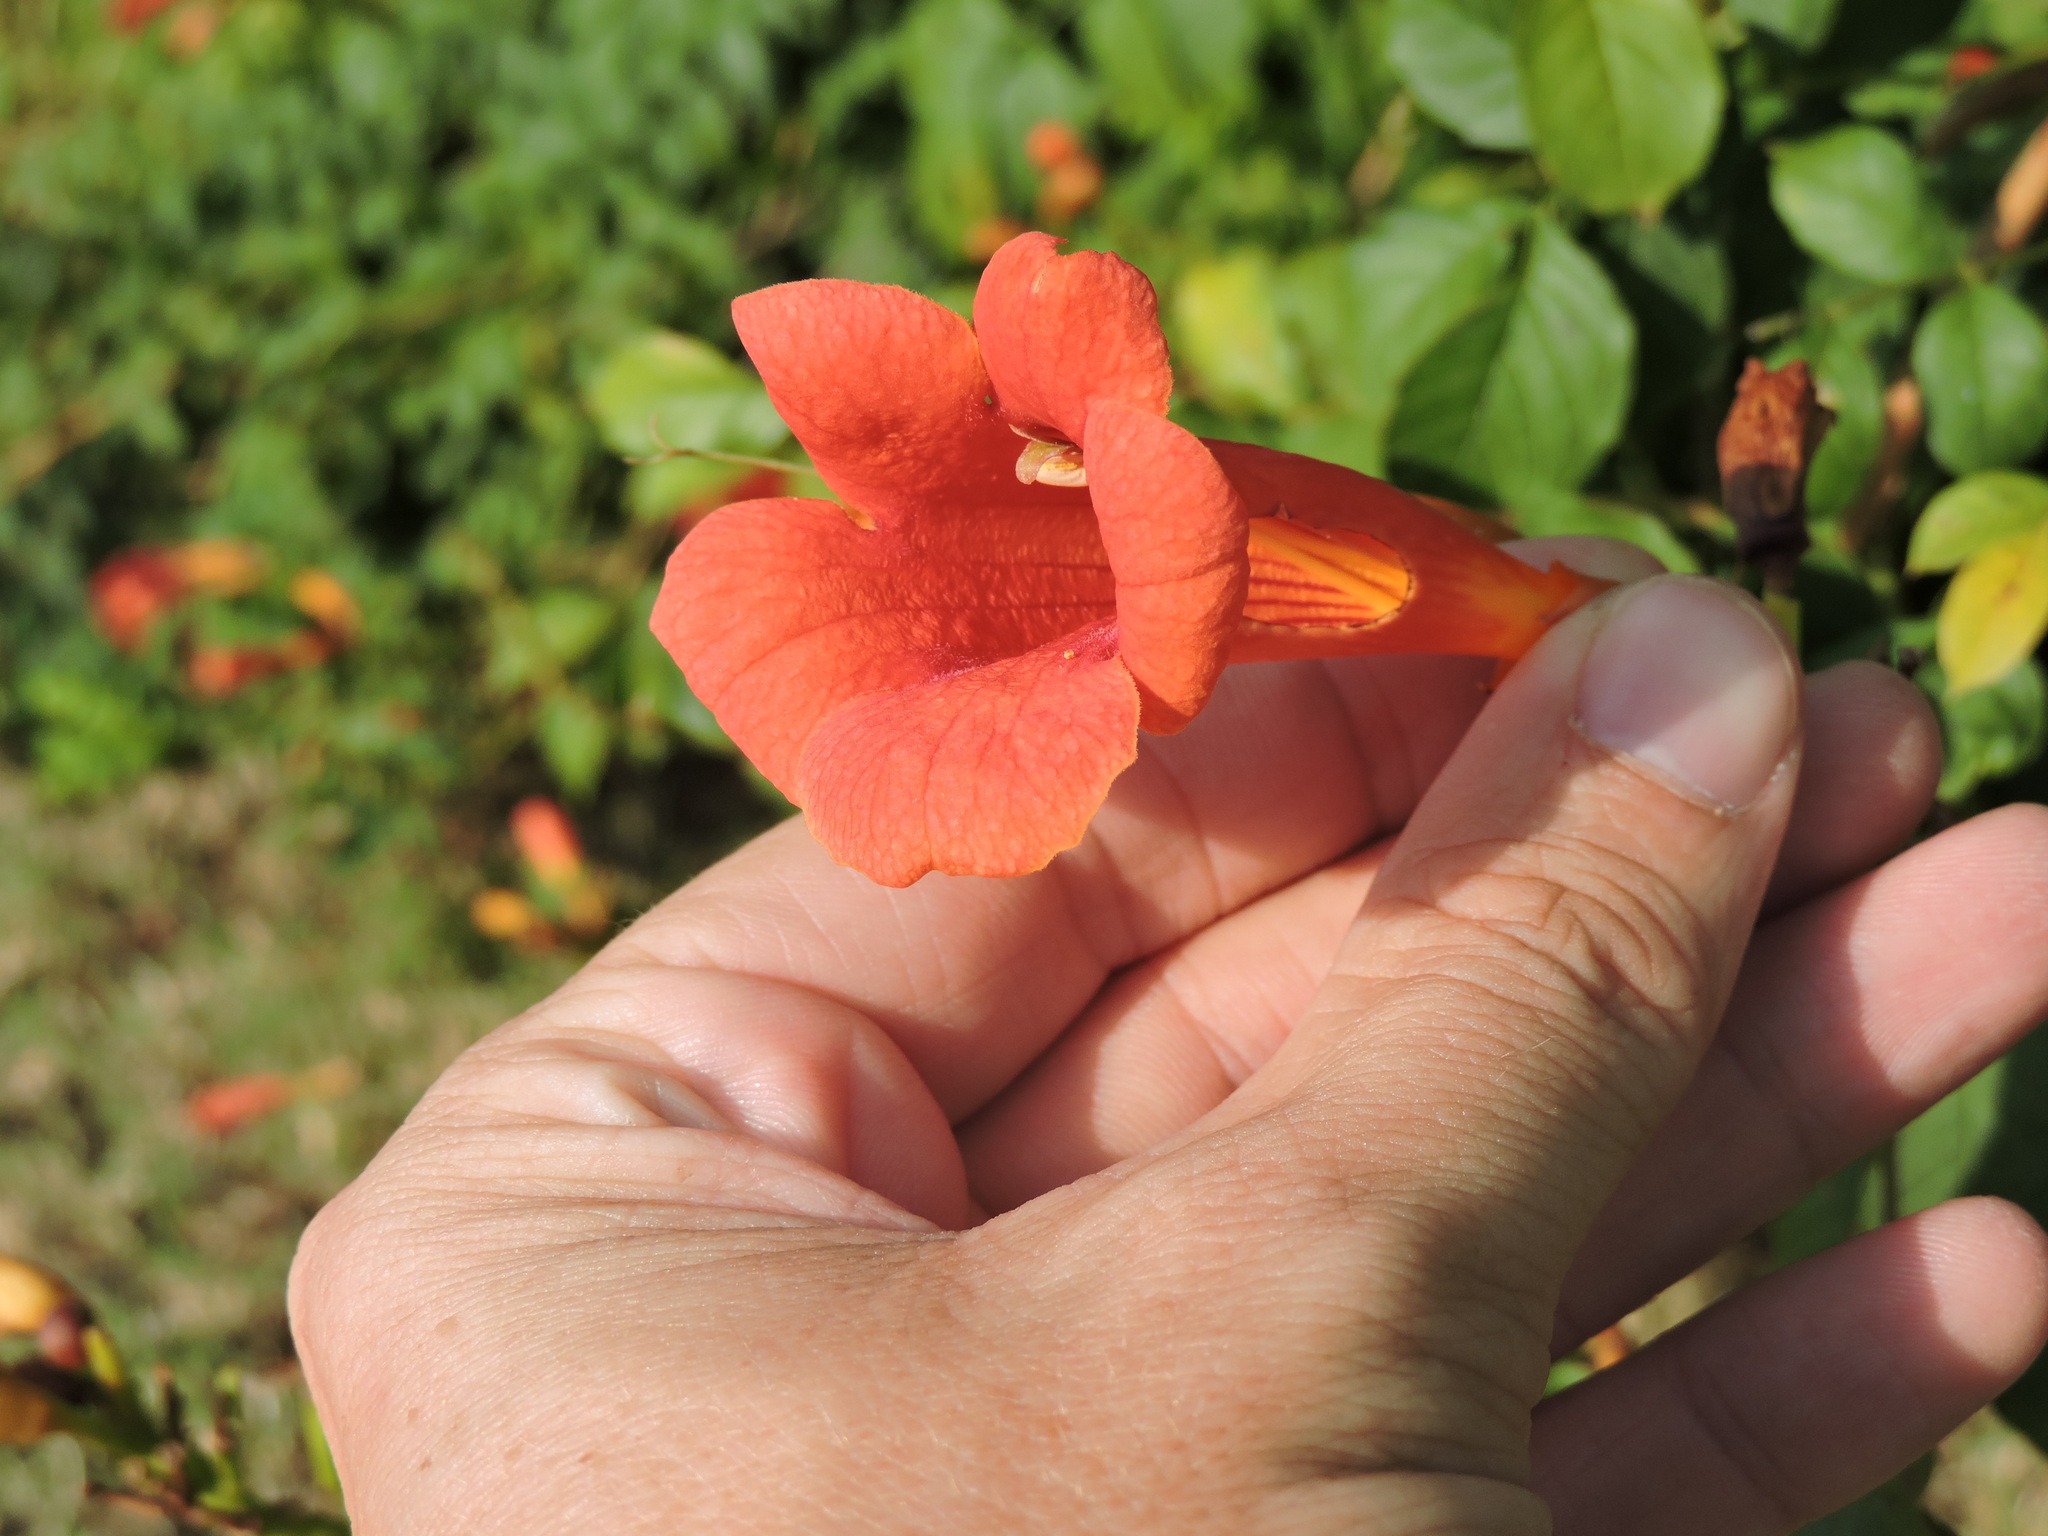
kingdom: Plantae
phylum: Tracheophyta
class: Magnoliopsida
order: Lamiales
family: Bignoniaceae
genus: Campsis
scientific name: Campsis radicans
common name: Trumpet-creeper
